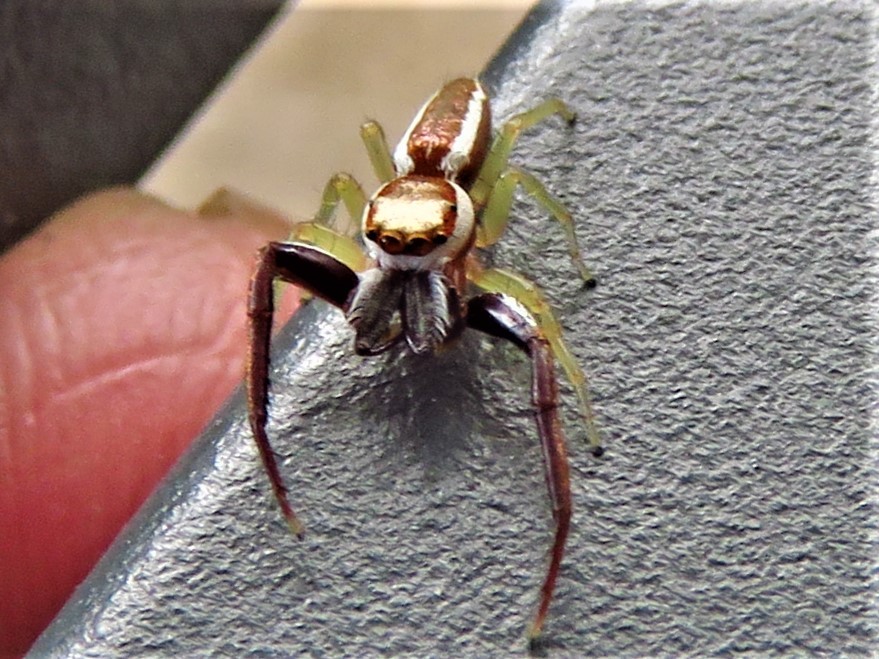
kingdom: Animalia
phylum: Arthropoda
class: Arachnida
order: Araneae
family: Salticidae
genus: Hentzia
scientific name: Hentzia palmarum
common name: Common hentz jumping spider
